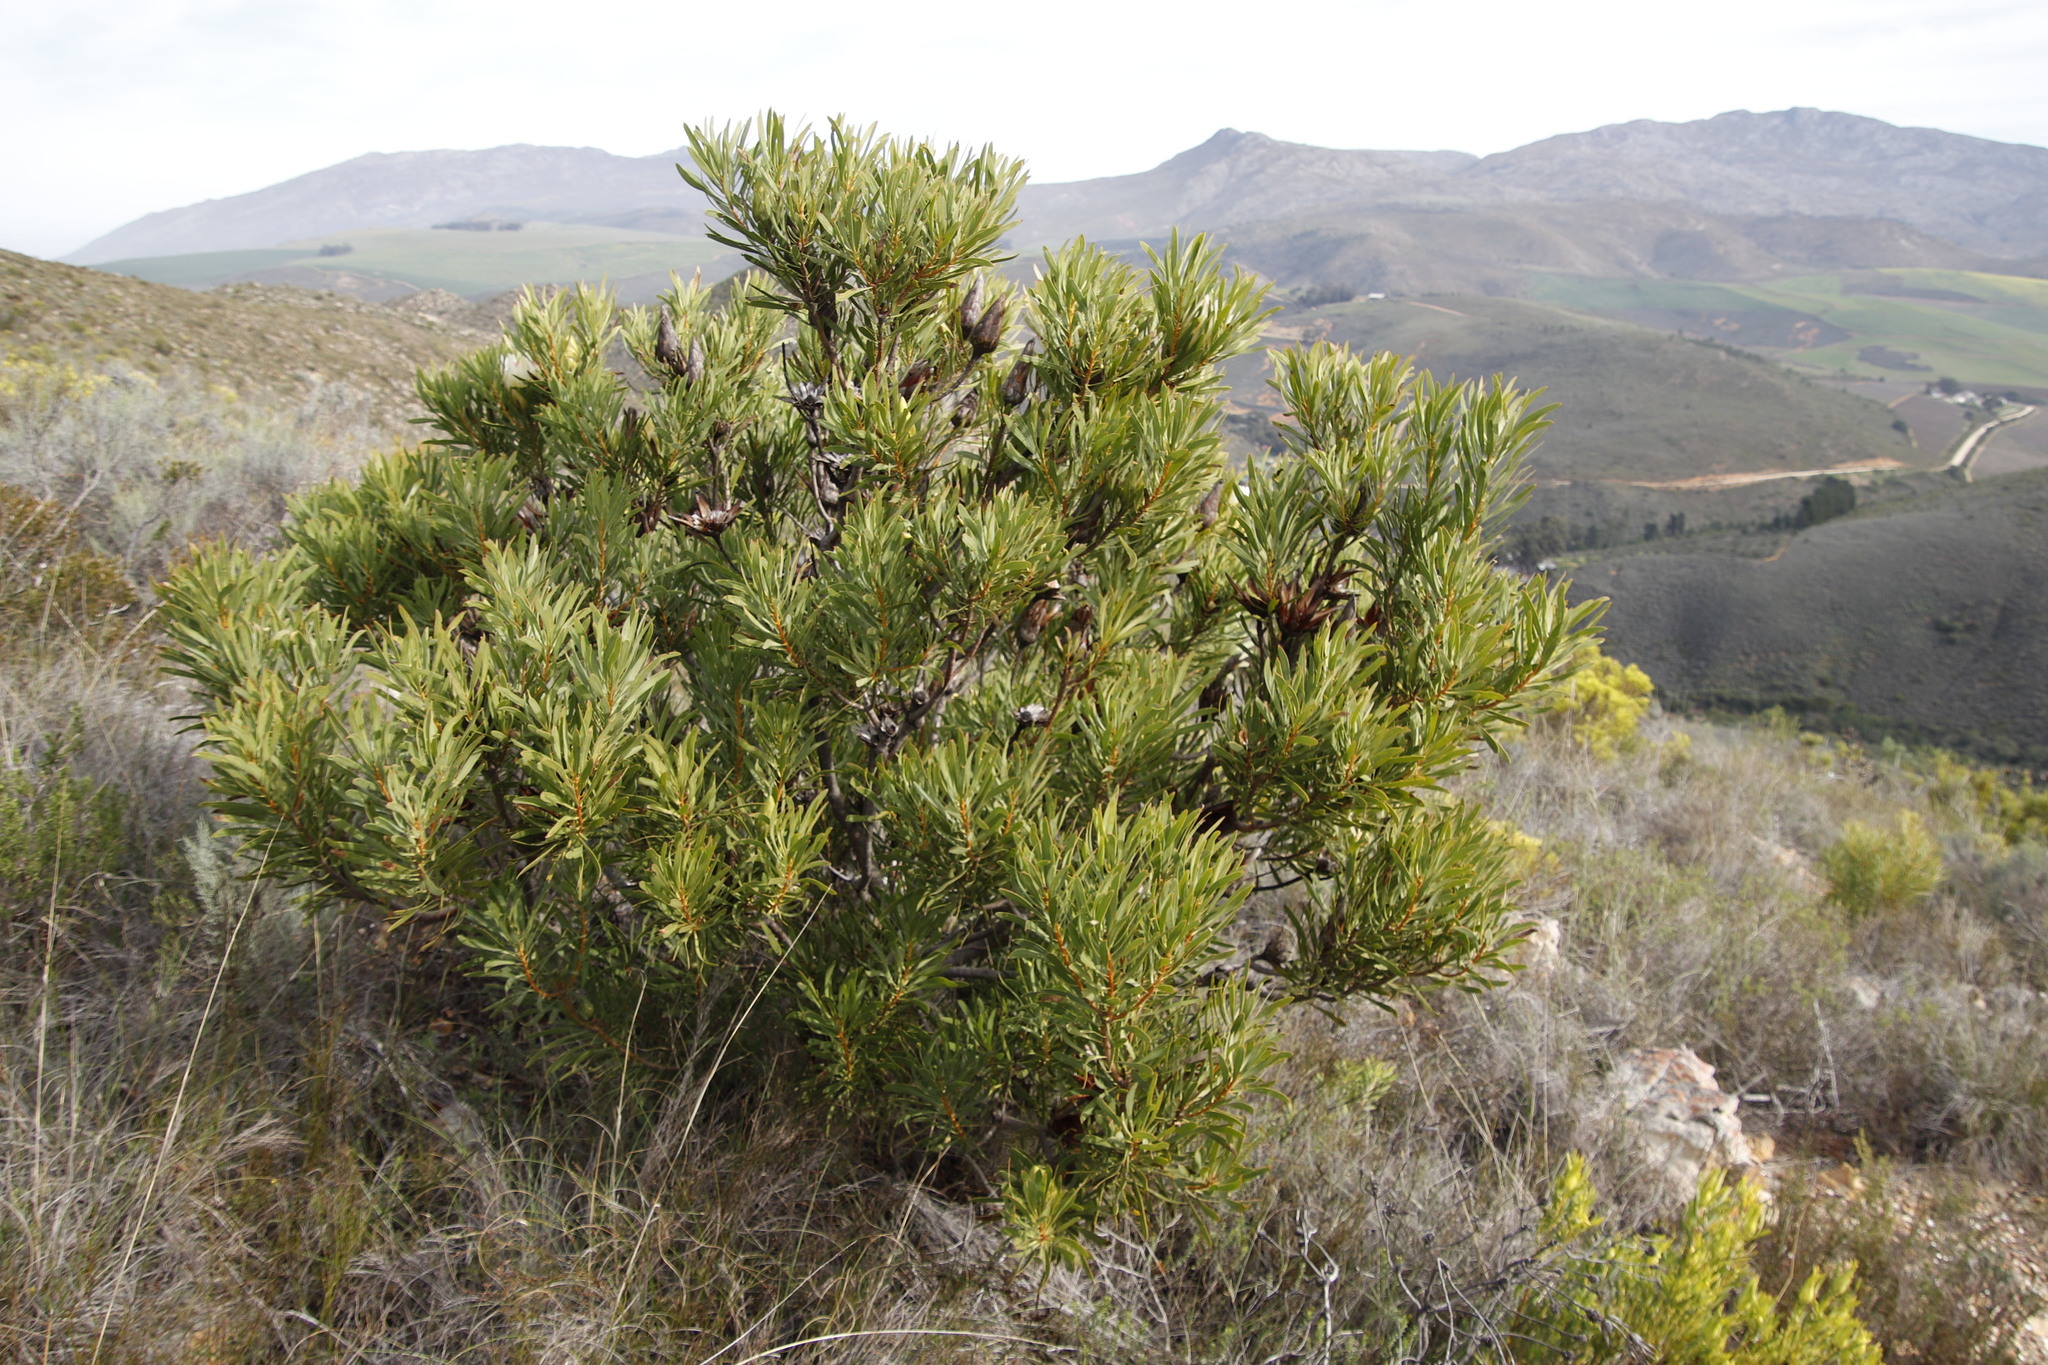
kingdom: Plantae
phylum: Tracheophyta
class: Magnoliopsida
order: Proteales
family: Proteaceae
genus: Protea
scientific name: Protea repens
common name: Sugarbush
